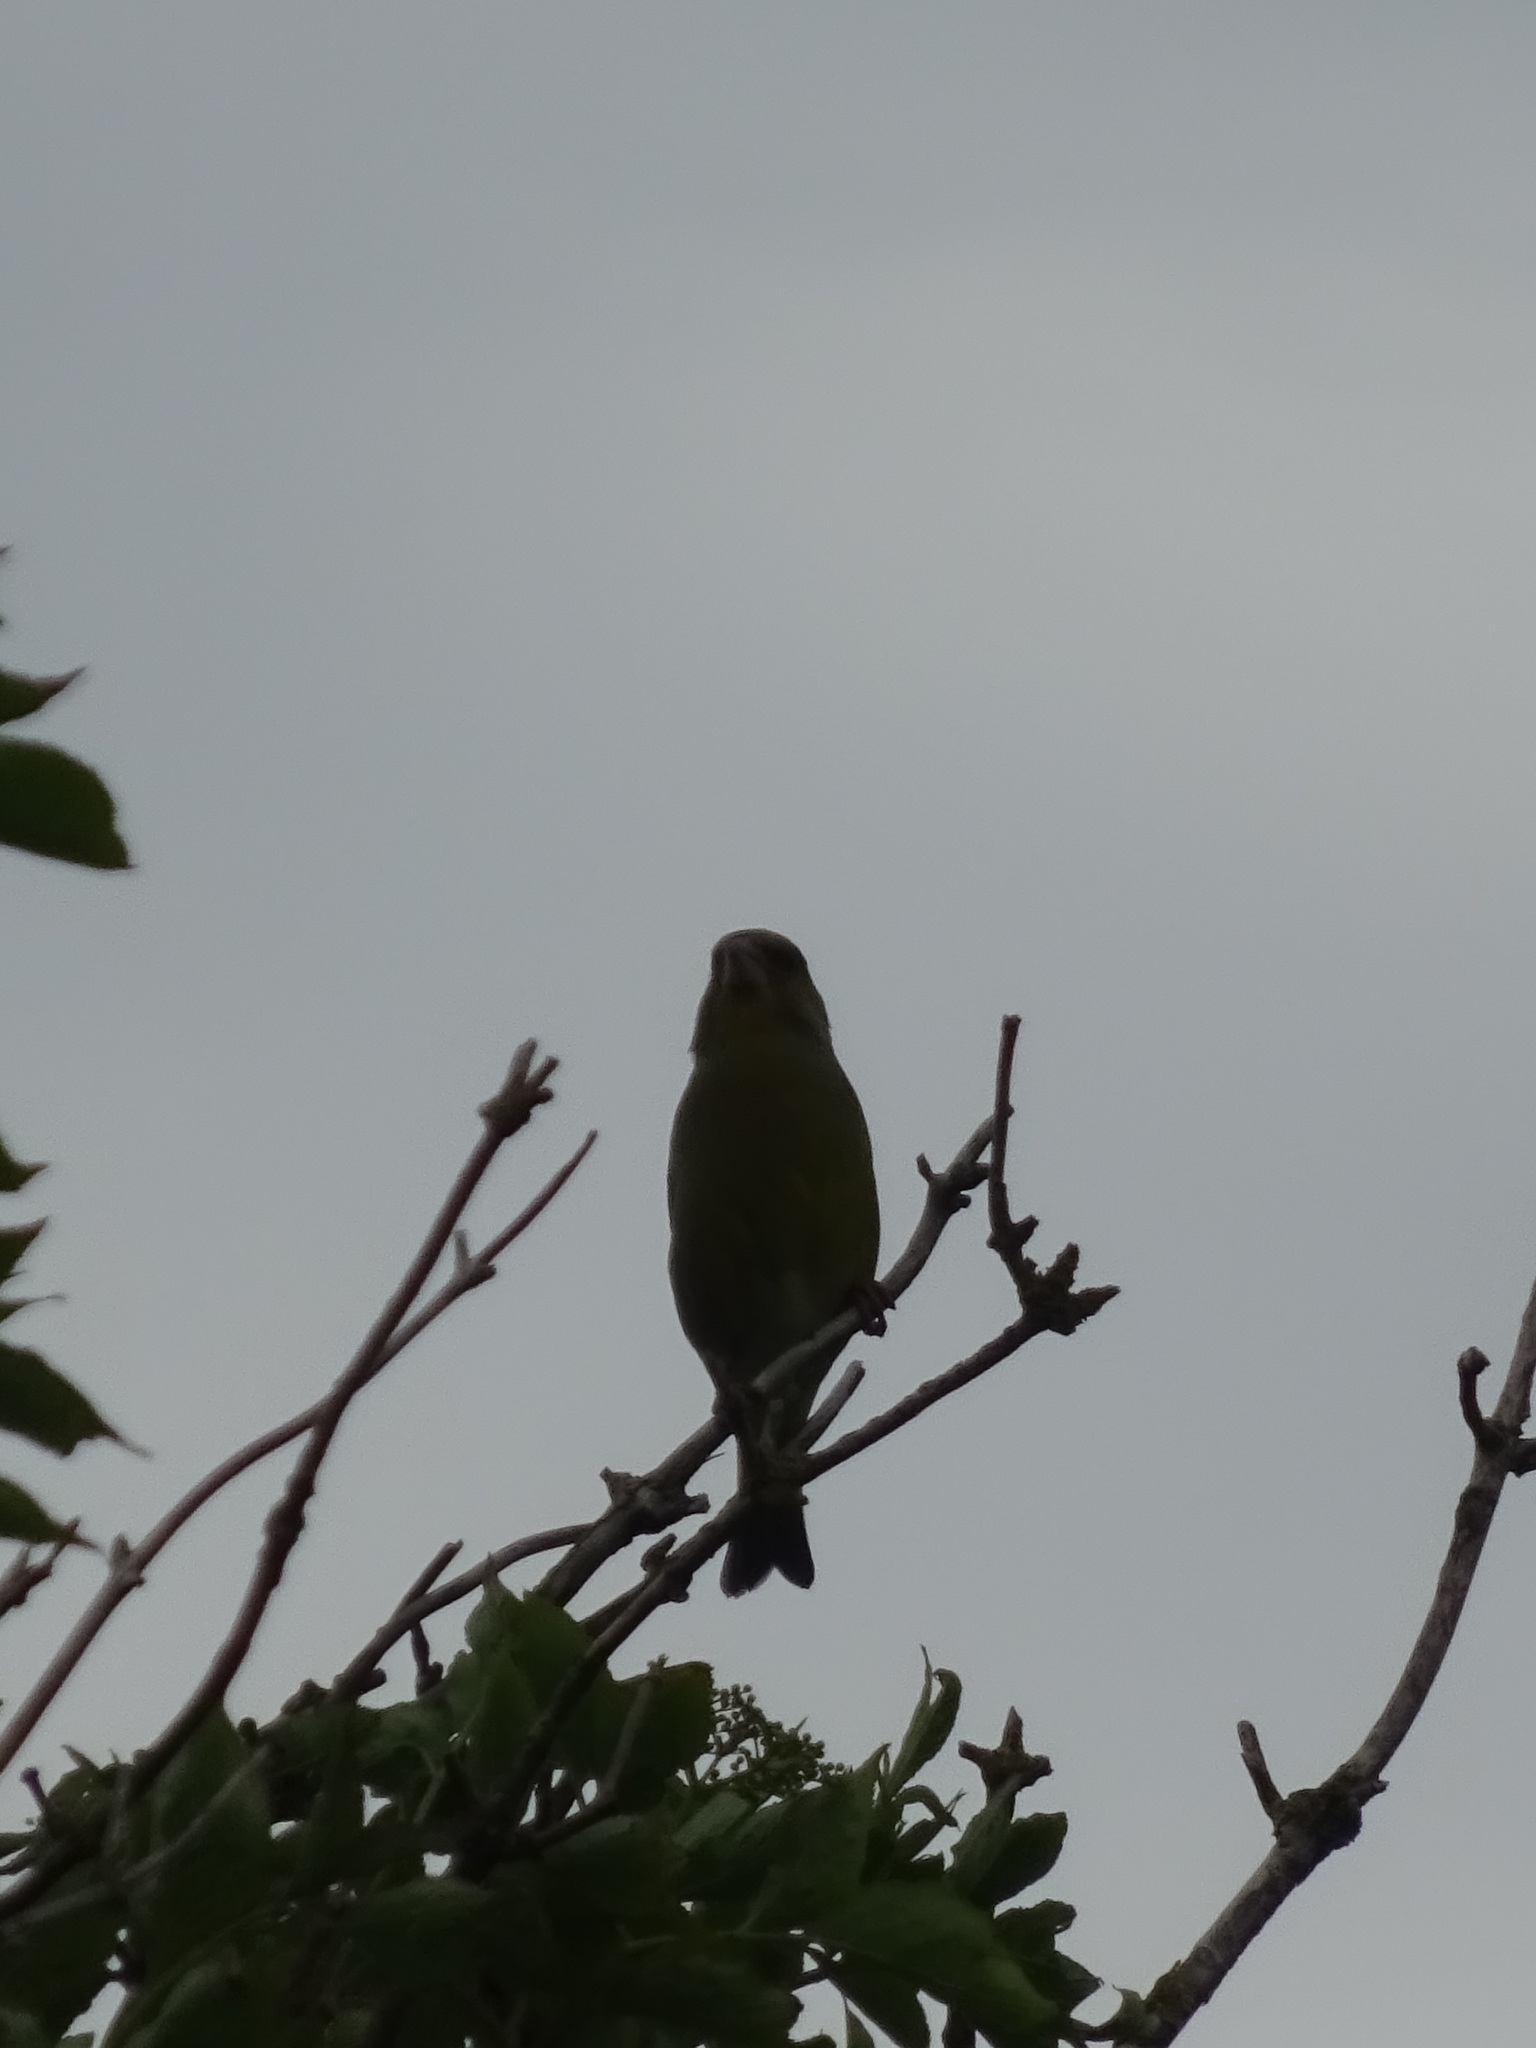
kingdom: Plantae
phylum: Tracheophyta
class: Liliopsida
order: Poales
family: Poaceae
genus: Chloris
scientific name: Chloris chloris
